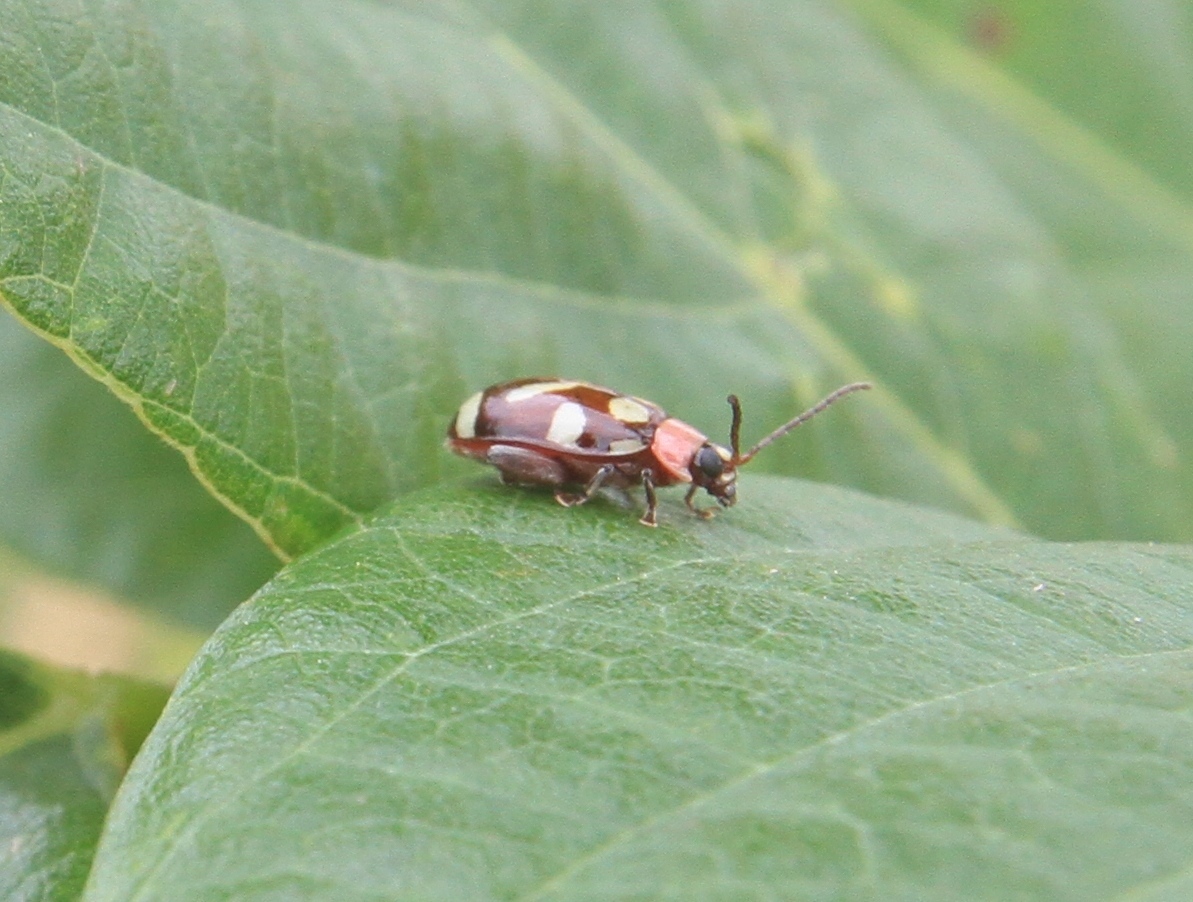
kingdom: Animalia
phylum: Arthropoda
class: Insecta
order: Coleoptera
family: Chrysomelidae
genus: Omophoita
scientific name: Omophoita albicollis
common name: Toensmeier's flea beetle
